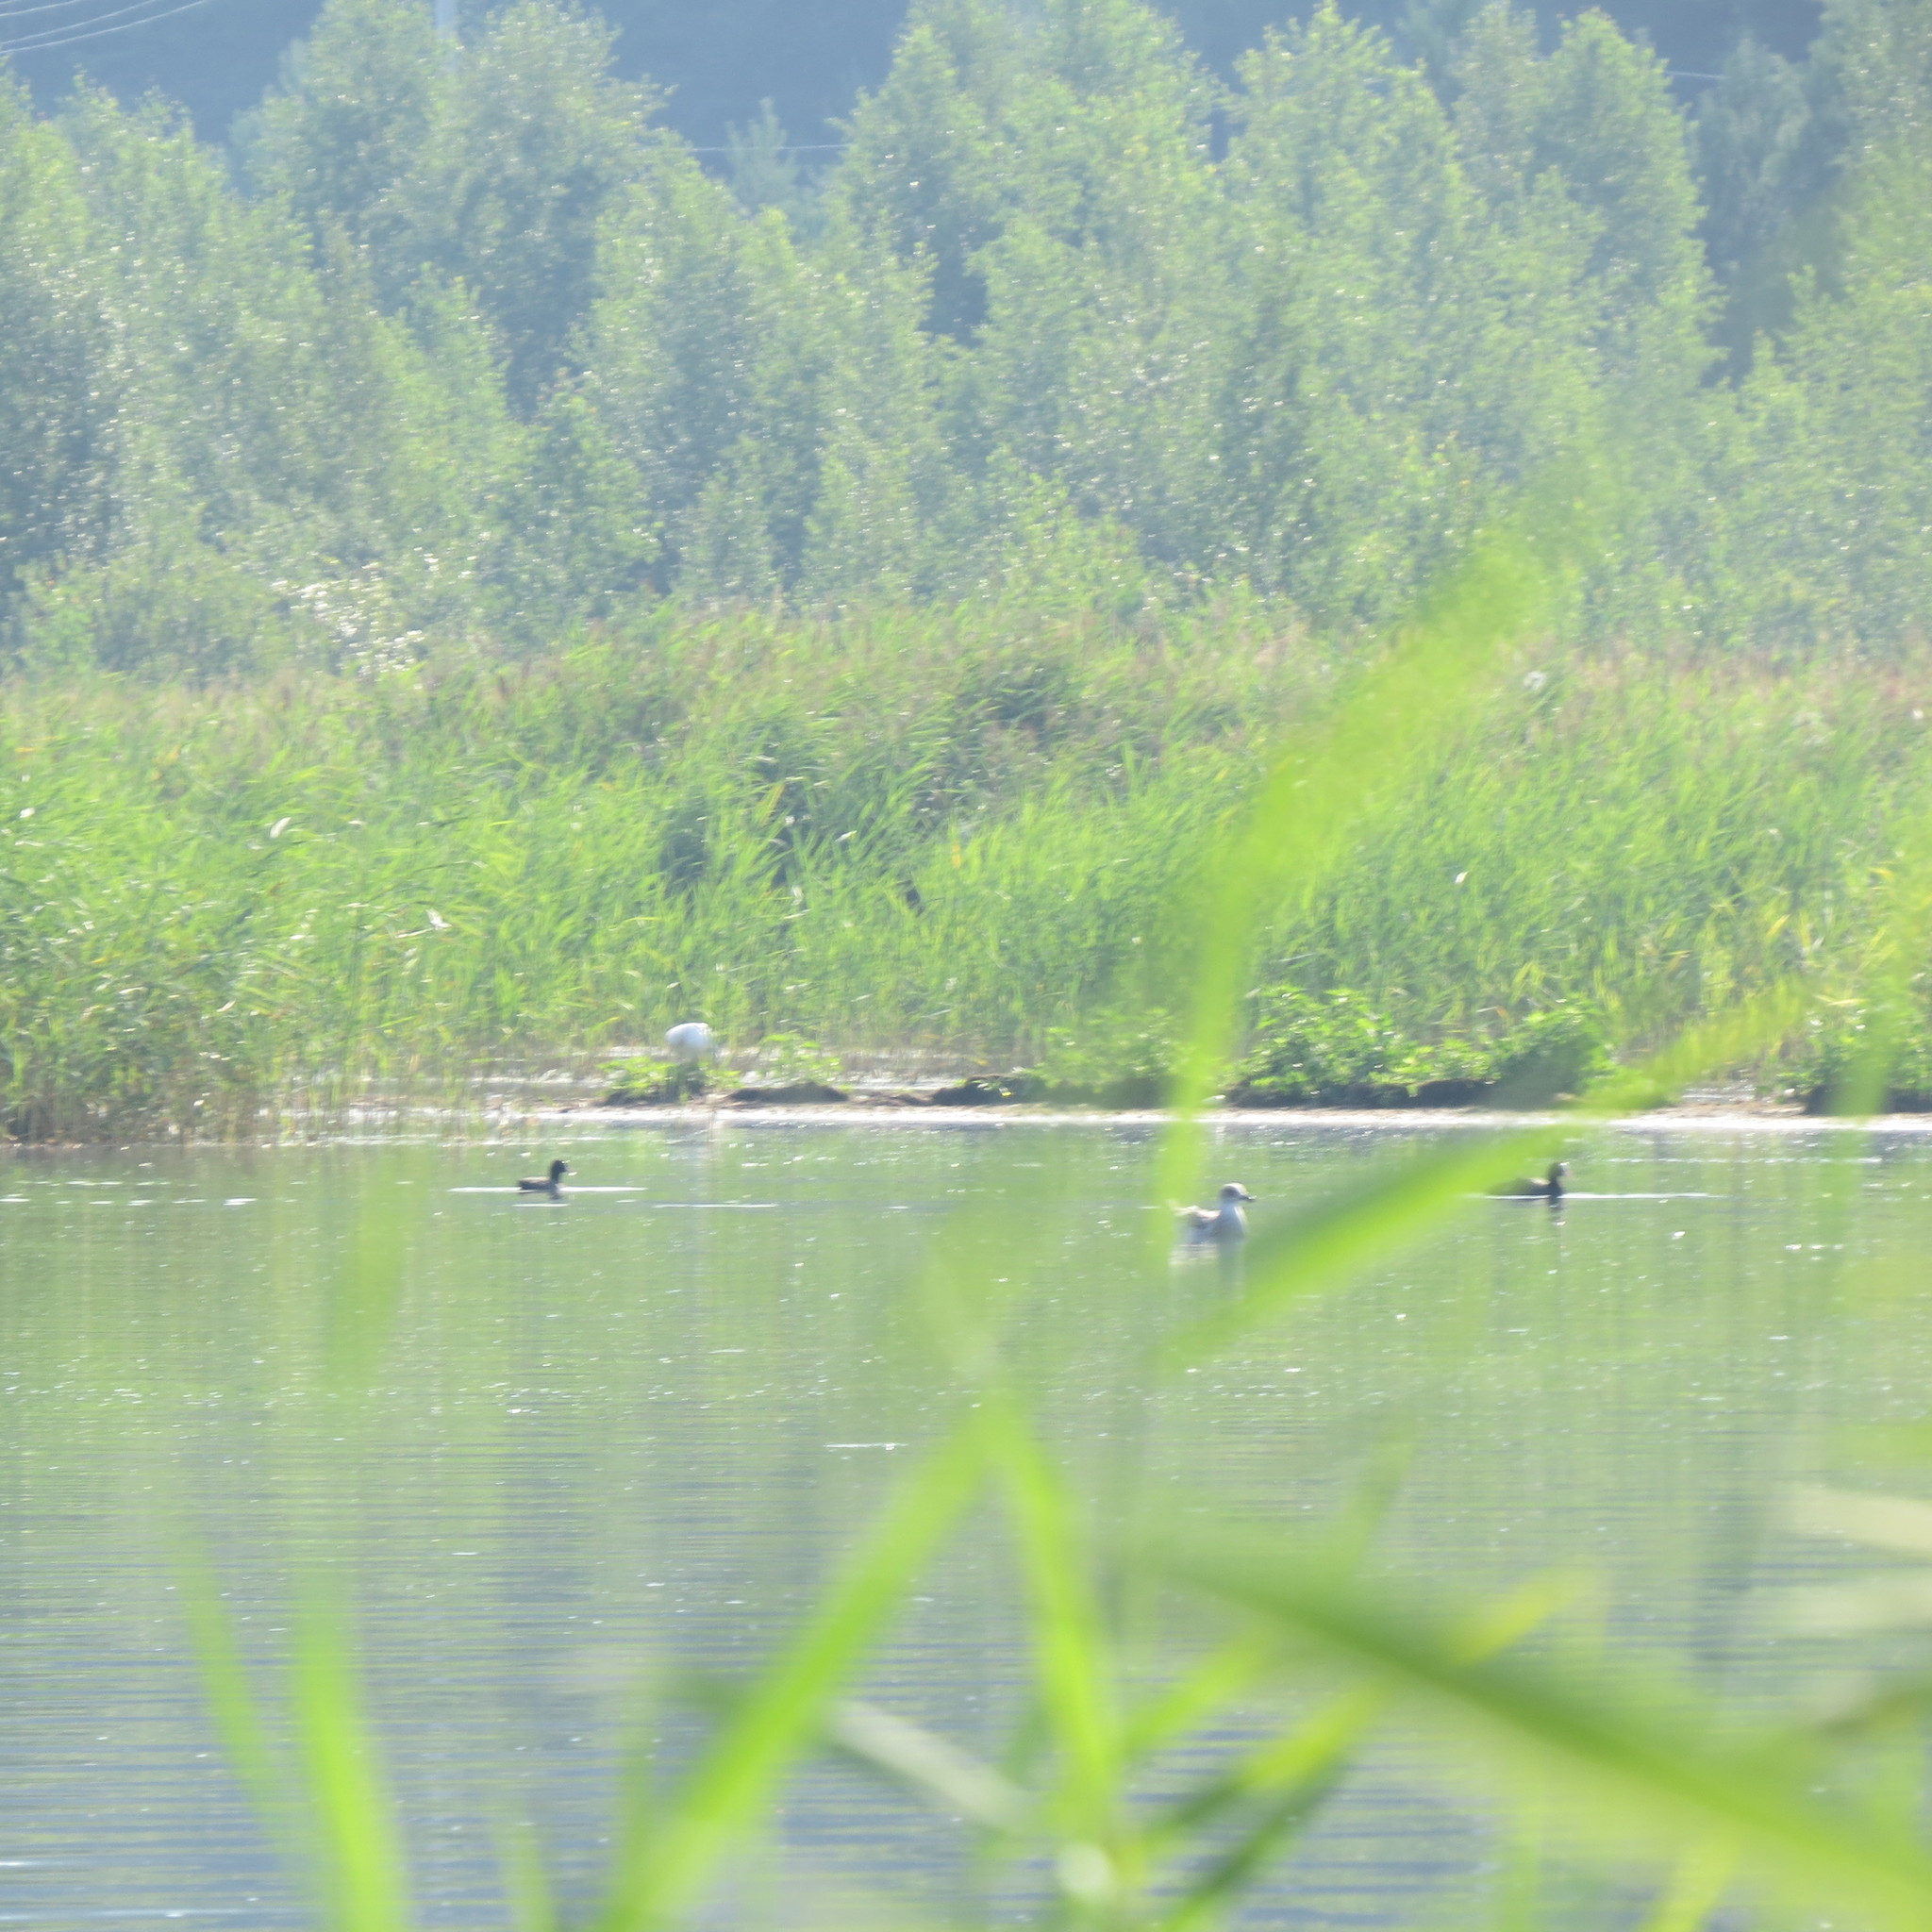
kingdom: Animalia
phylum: Chordata
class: Aves
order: Gruiformes
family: Rallidae
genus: Fulica
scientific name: Fulica atra
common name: Eurasian coot
